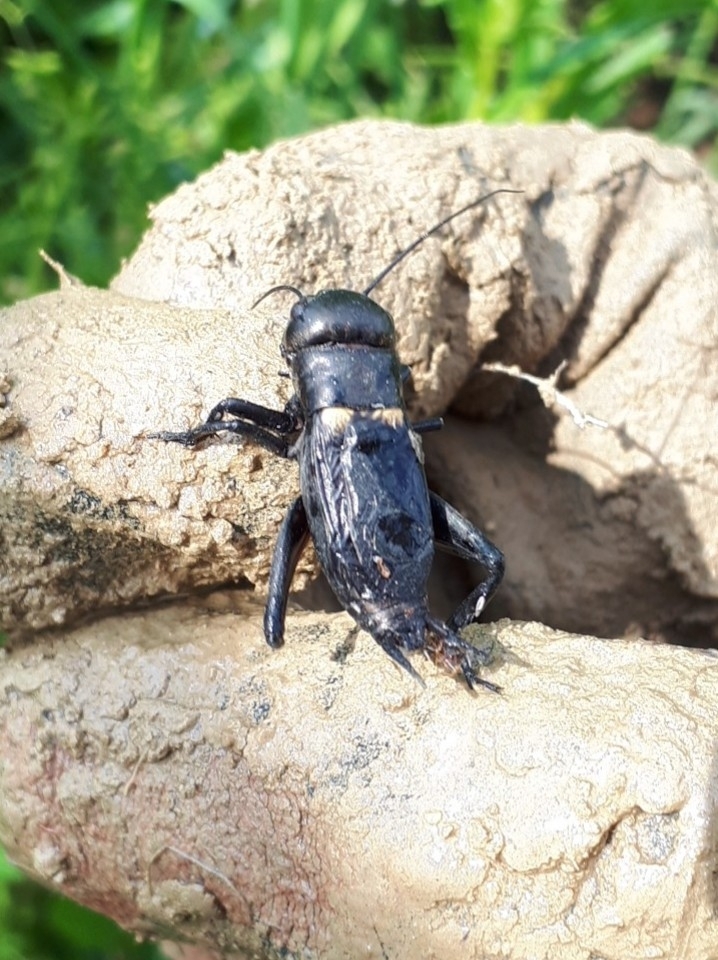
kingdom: Animalia
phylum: Arthropoda
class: Insecta
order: Orthoptera
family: Gryllidae
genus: Gryllus
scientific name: Gryllus campestris
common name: Field cricket
